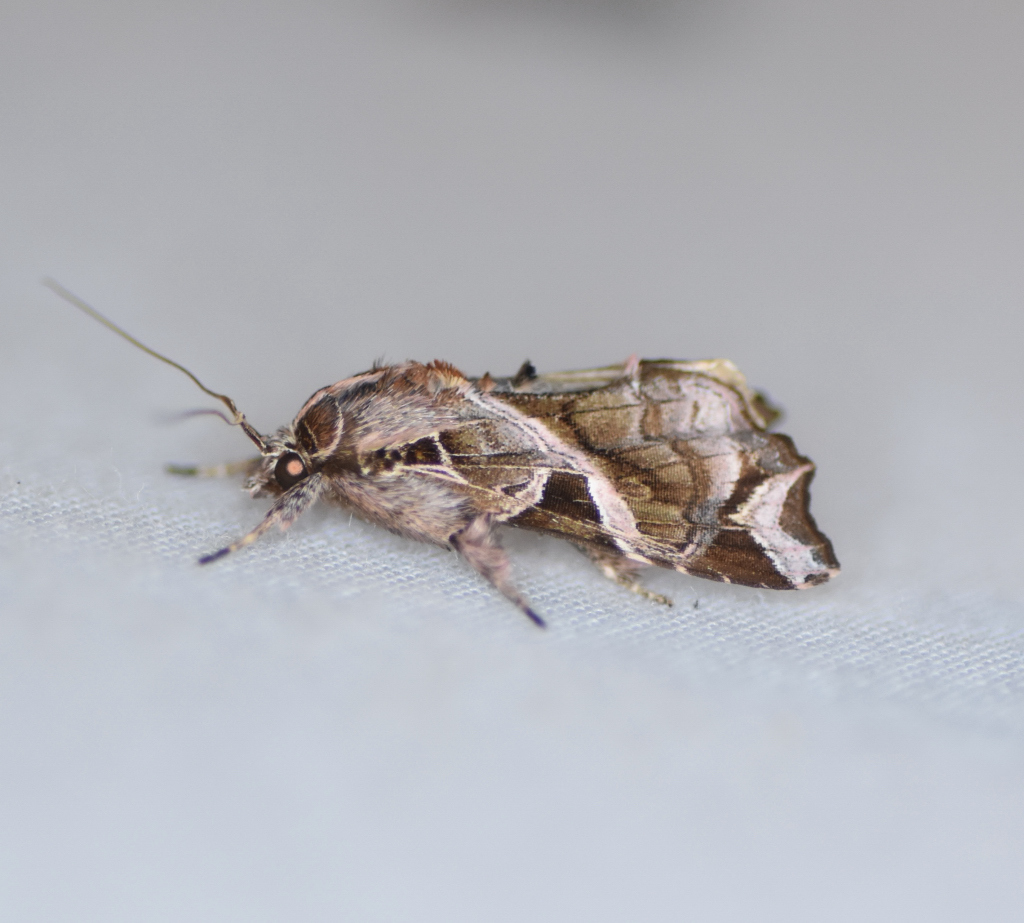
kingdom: Animalia
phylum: Arthropoda
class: Insecta
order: Lepidoptera
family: Noctuidae
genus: Callopistria
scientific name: Callopistria floridensis
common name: Florida fern moth
